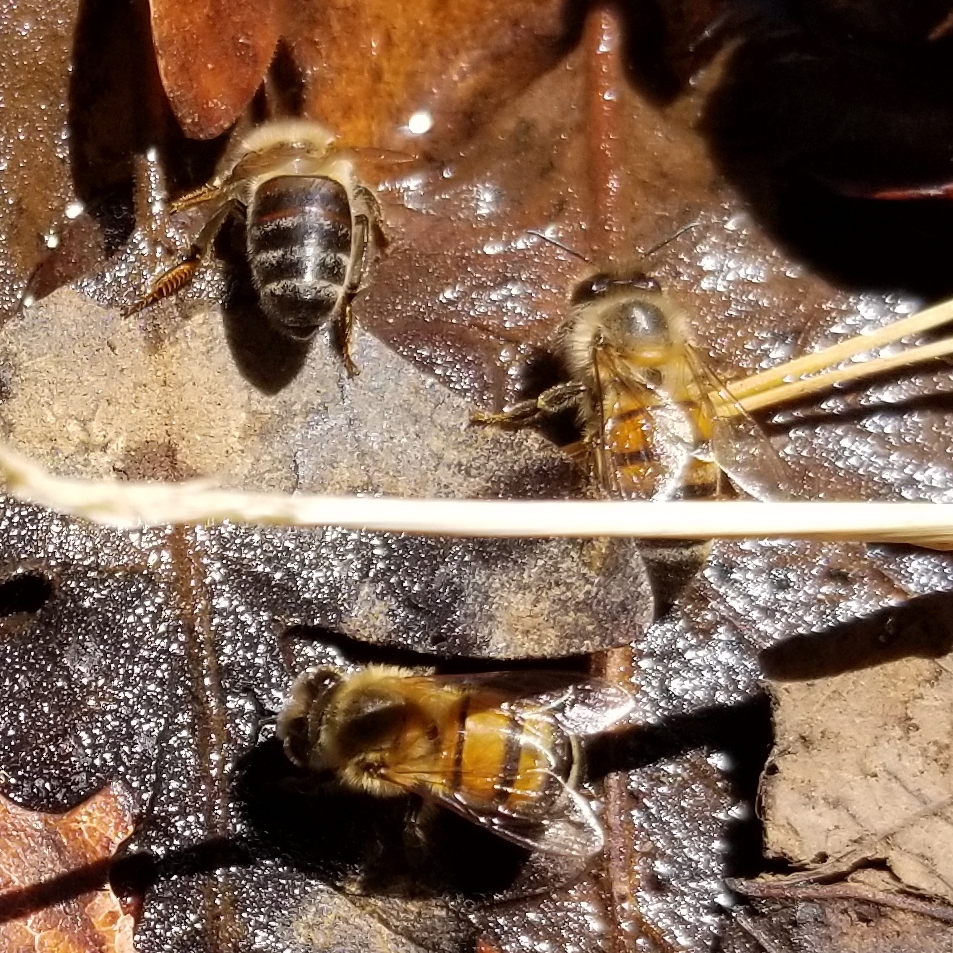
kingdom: Animalia
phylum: Arthropoda
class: Insecta
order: Hymenoptera
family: Apidae
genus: Apis
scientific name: Apis mellifera
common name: Honey bee
